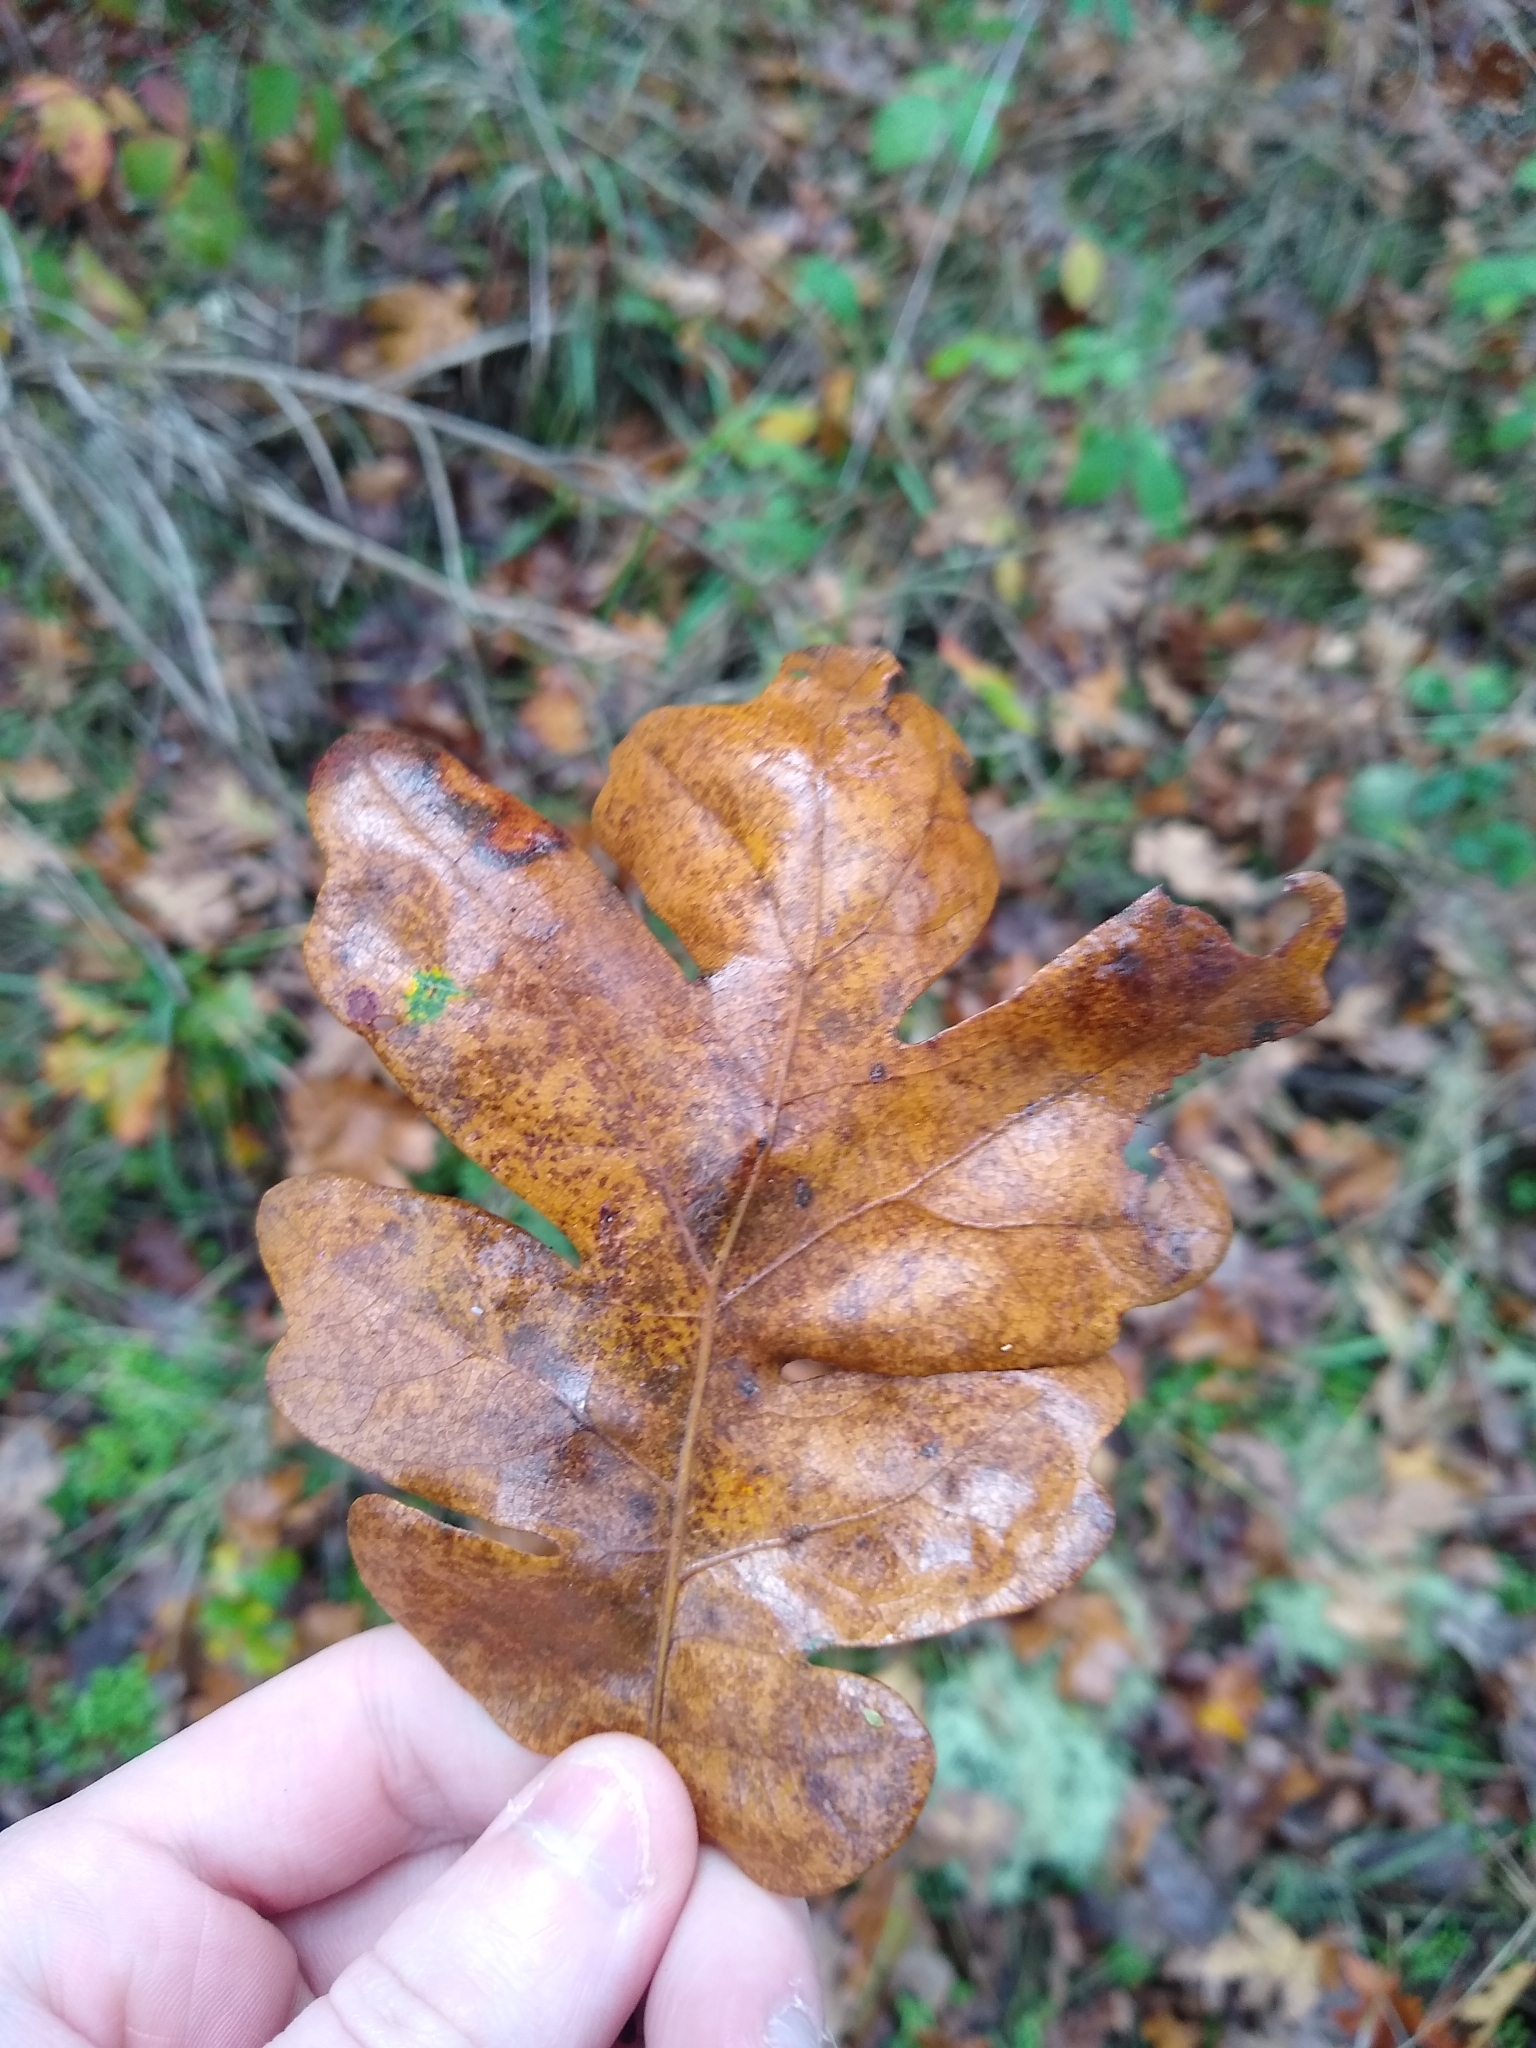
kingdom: Plantae
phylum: Tracheophyta
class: Magnoliopsida
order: Fagales
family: Fagaceae
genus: Quercus
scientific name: Quercus garryana
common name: Garry oak
